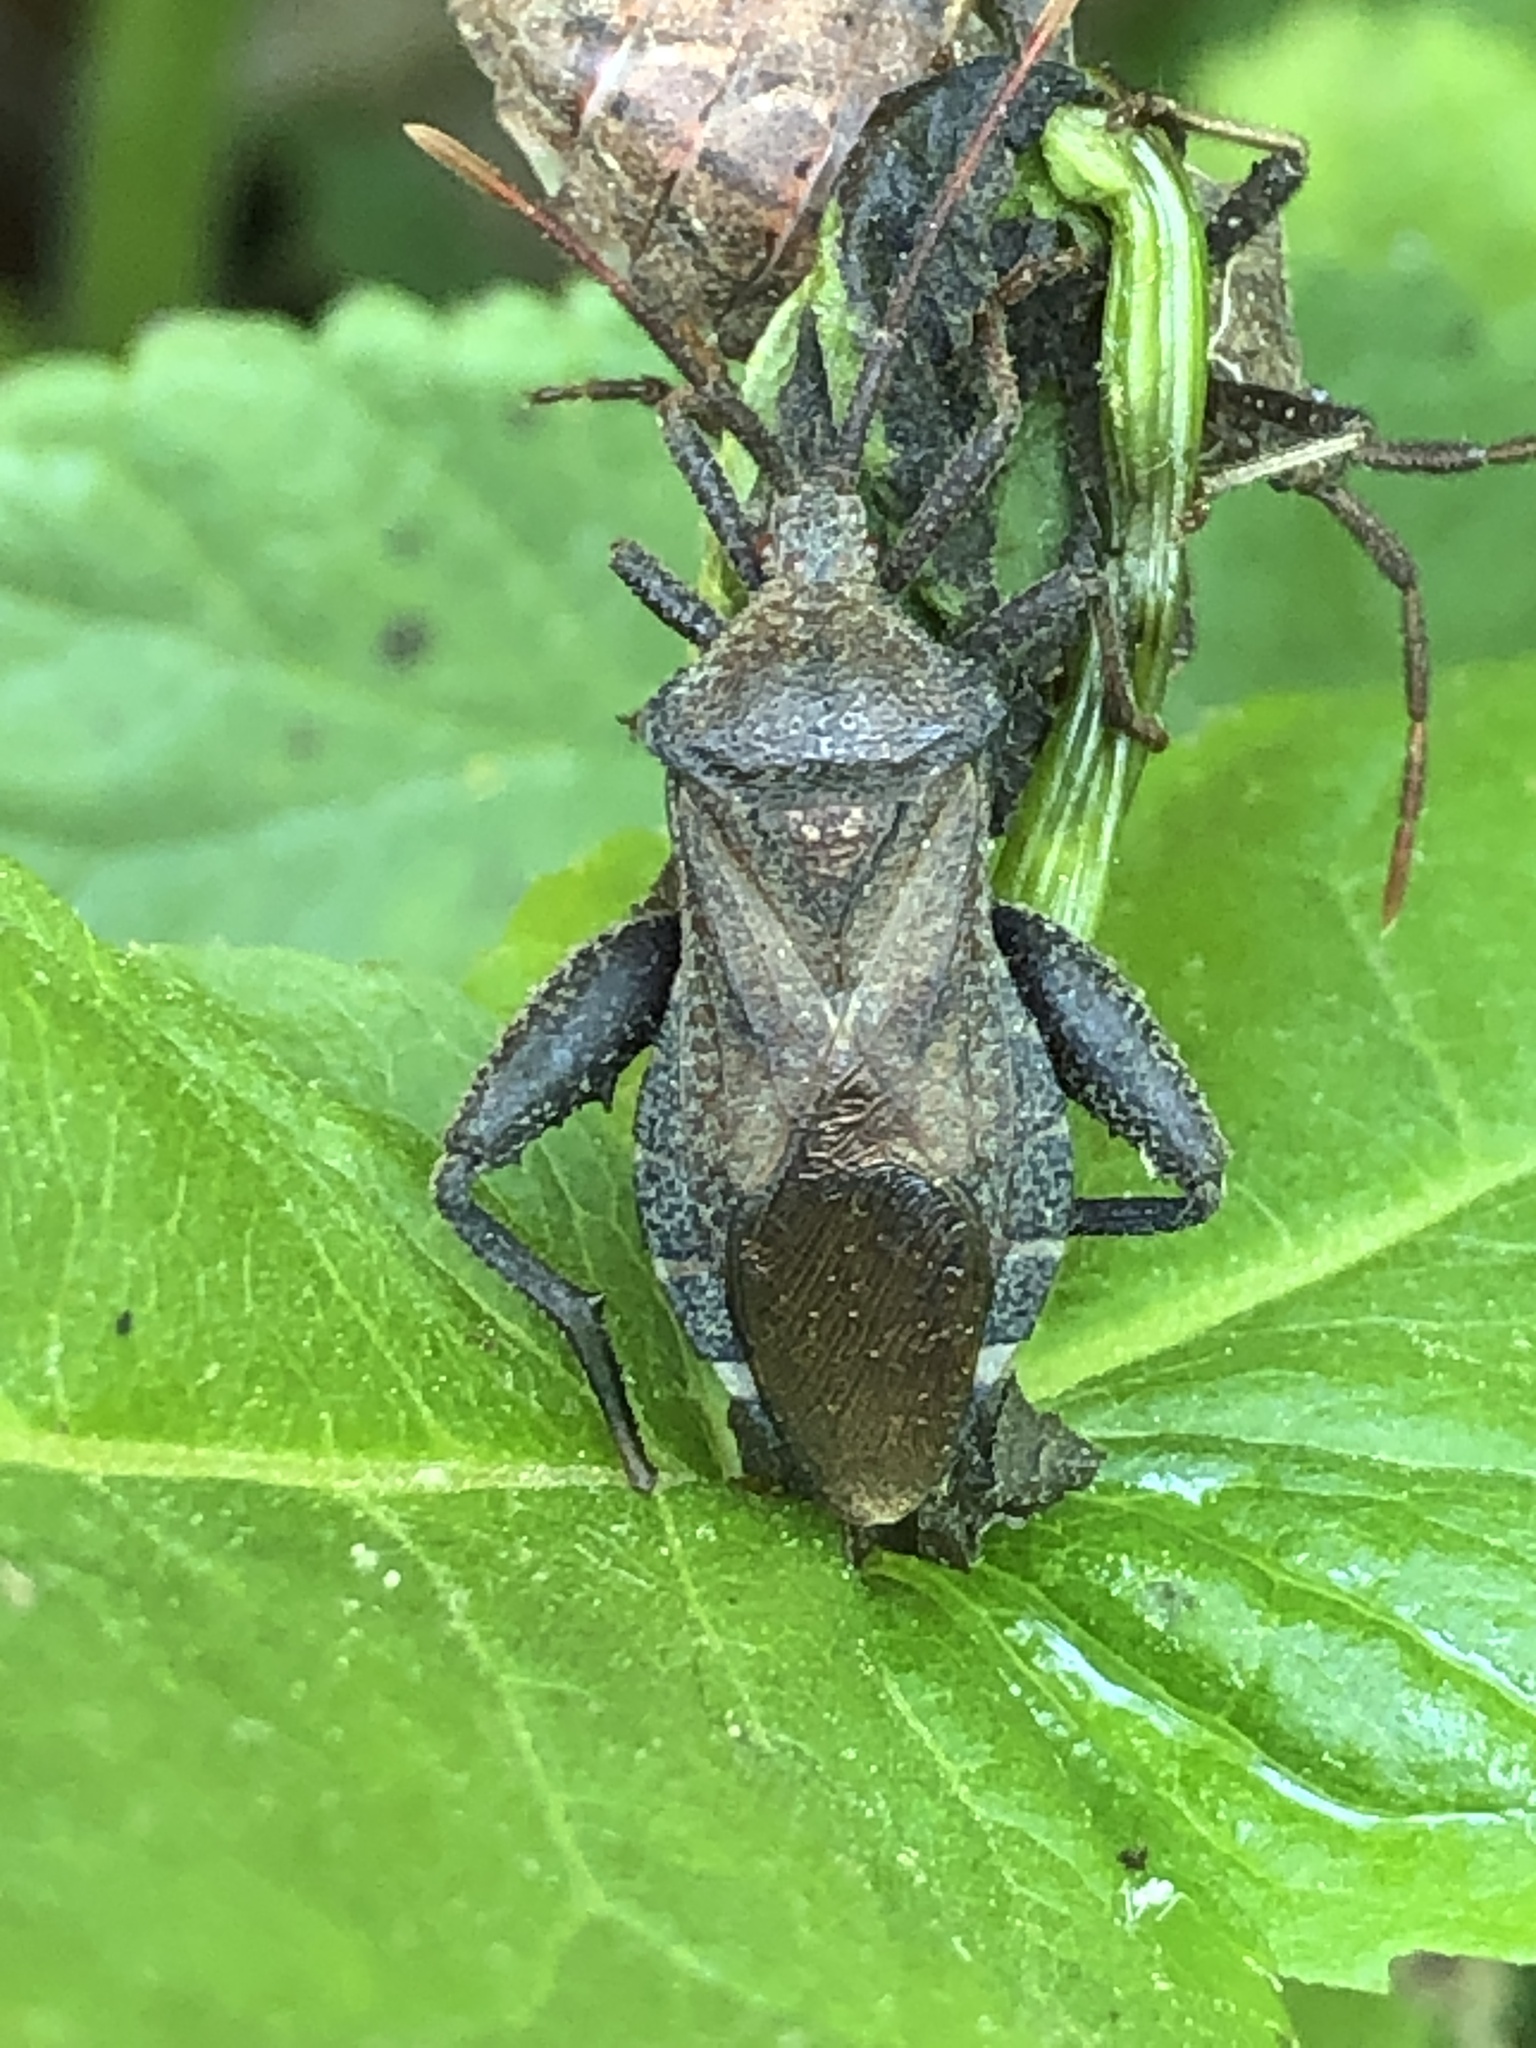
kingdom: Animalia
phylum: Arthropoda
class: Insecta
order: Hemiptera
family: Coreidae
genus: Piezogaster
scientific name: Piezogaster calcarator
